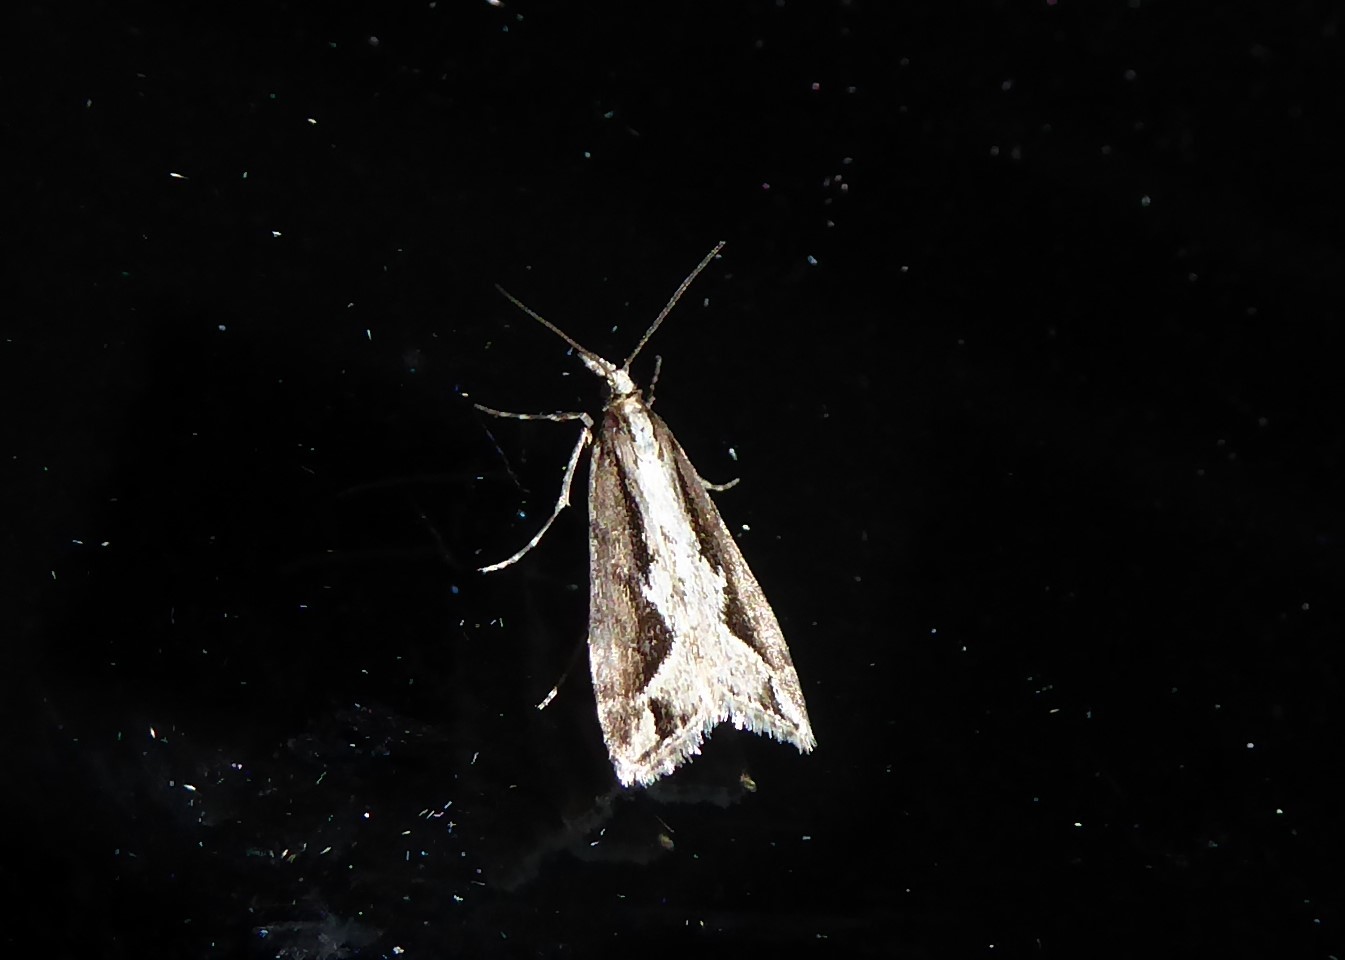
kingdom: Animalia
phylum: Arthropoda
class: Insecta
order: Lepidoptera
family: Crambidae
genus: Eudonia
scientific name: Eudonia steropaea
